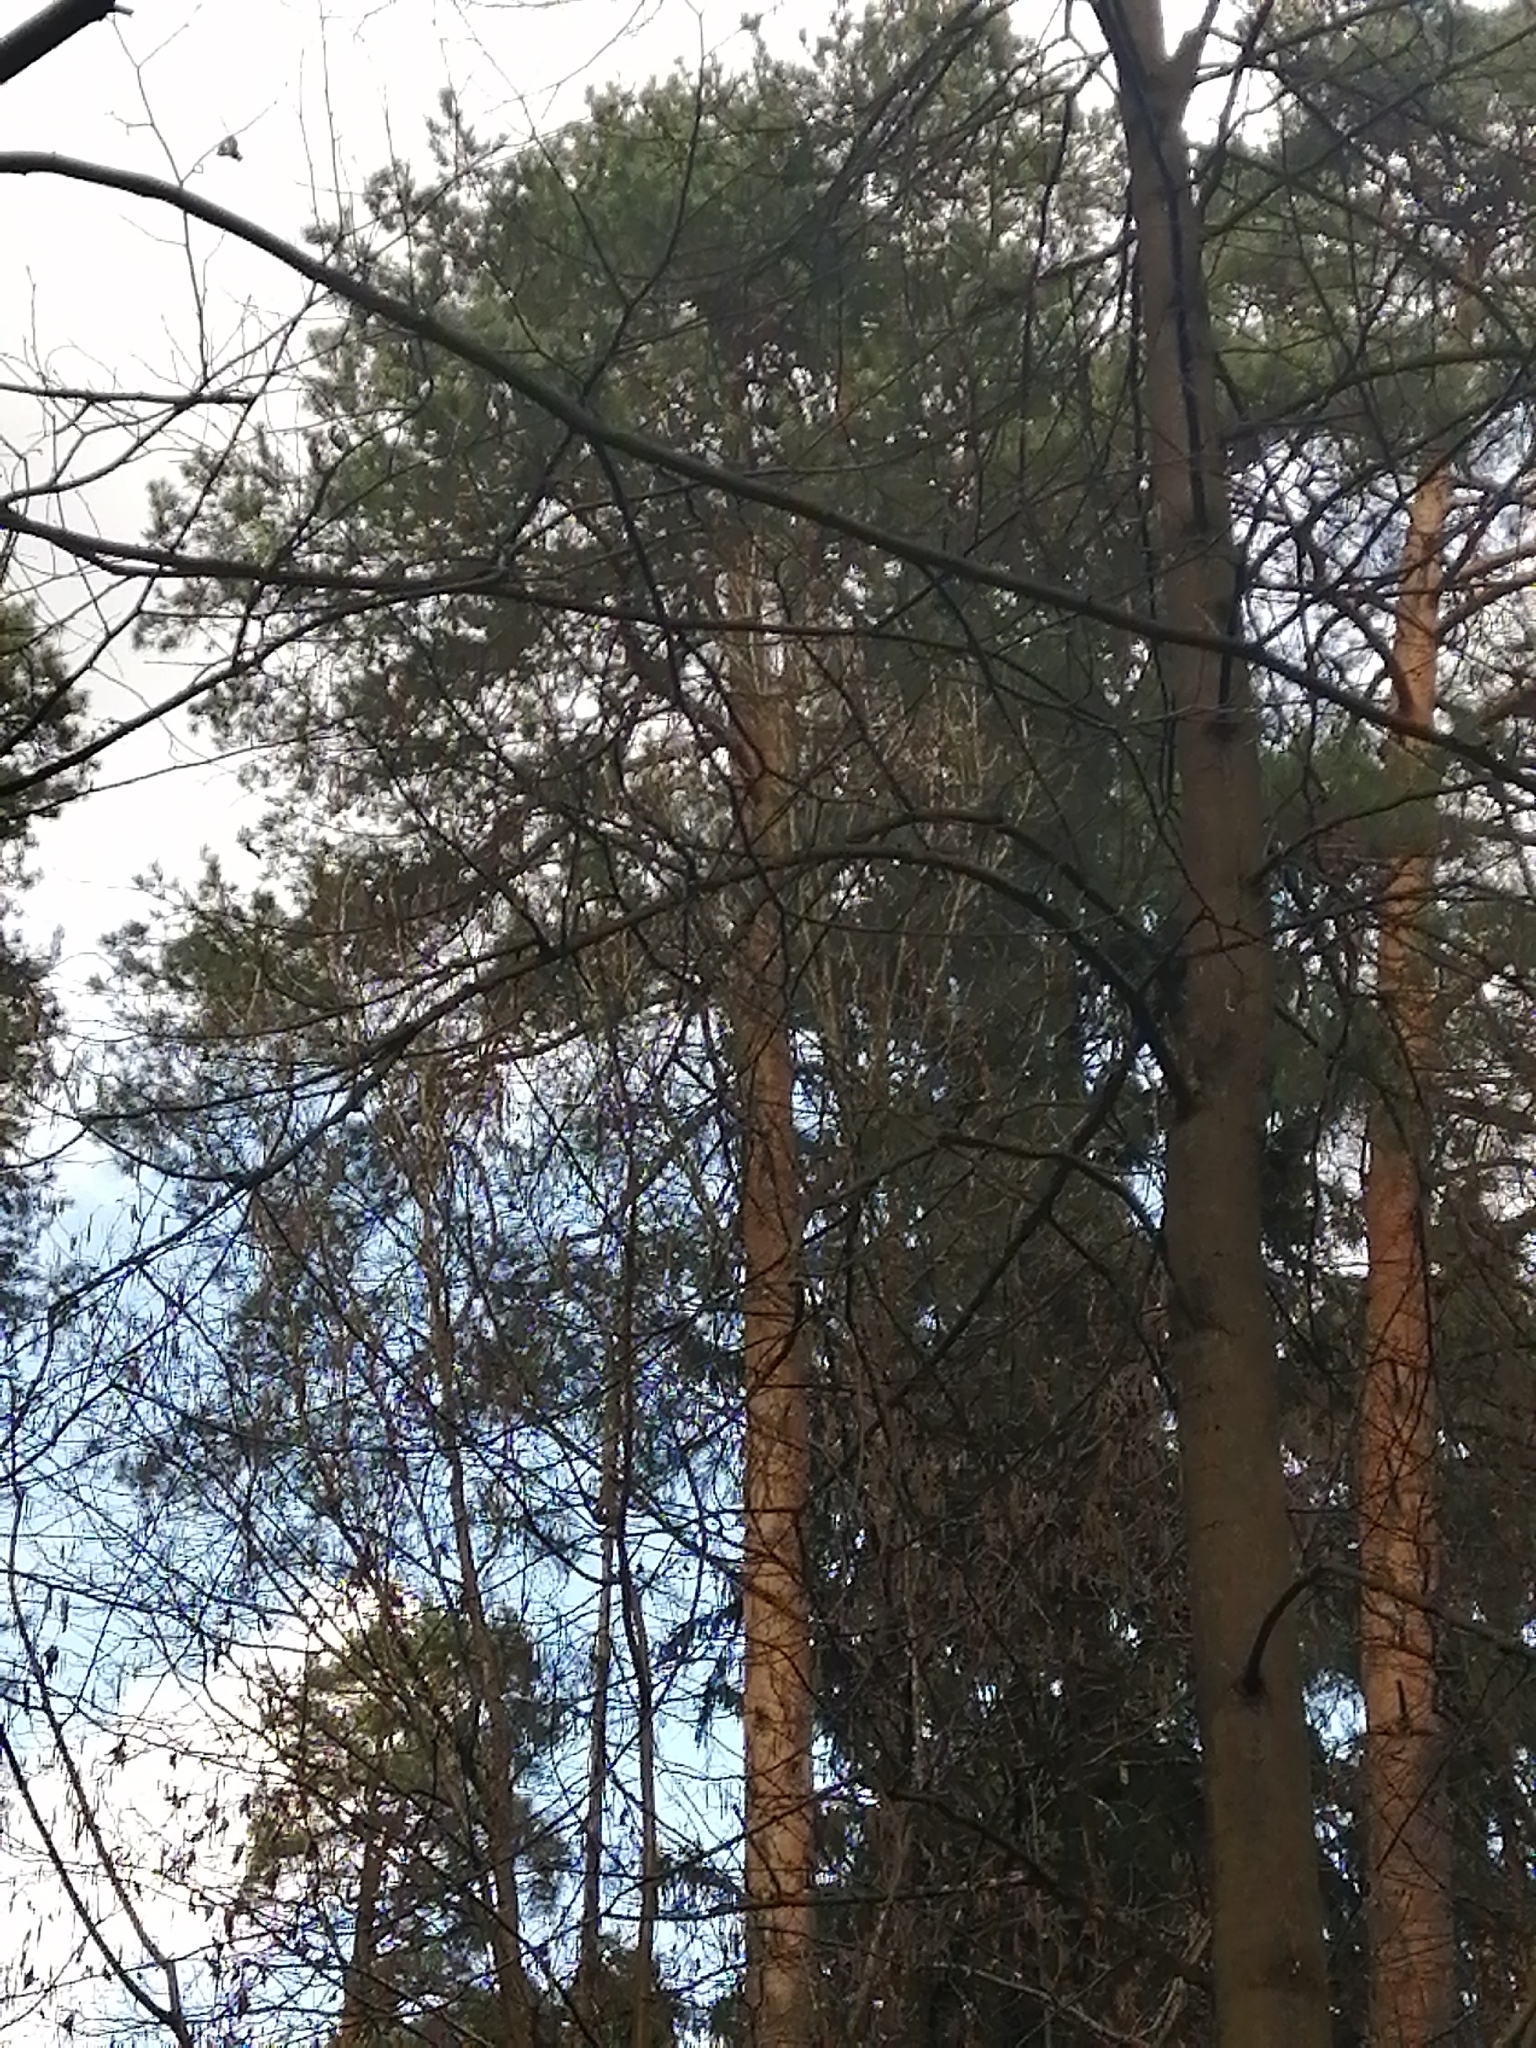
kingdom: Plantae
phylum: Tracheophyta
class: Pinopsida
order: Pinales
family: Pinaceae
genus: Pinus
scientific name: Pinus sylvestris
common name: Scots pine
